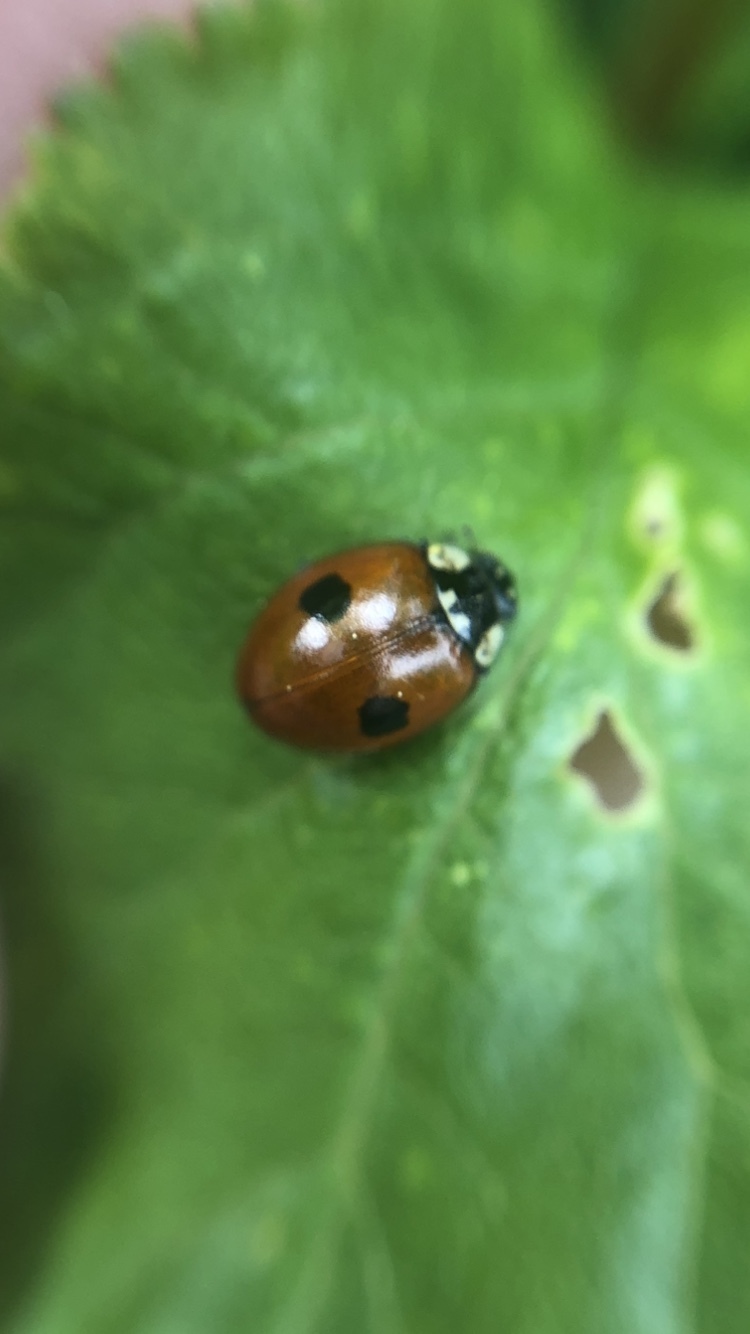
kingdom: Animalia
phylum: Arthropoda
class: Insecta
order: Coleoptera
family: Coccinellidae
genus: Adalia
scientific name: Adalia bipunctata
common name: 2-spot ladybird
